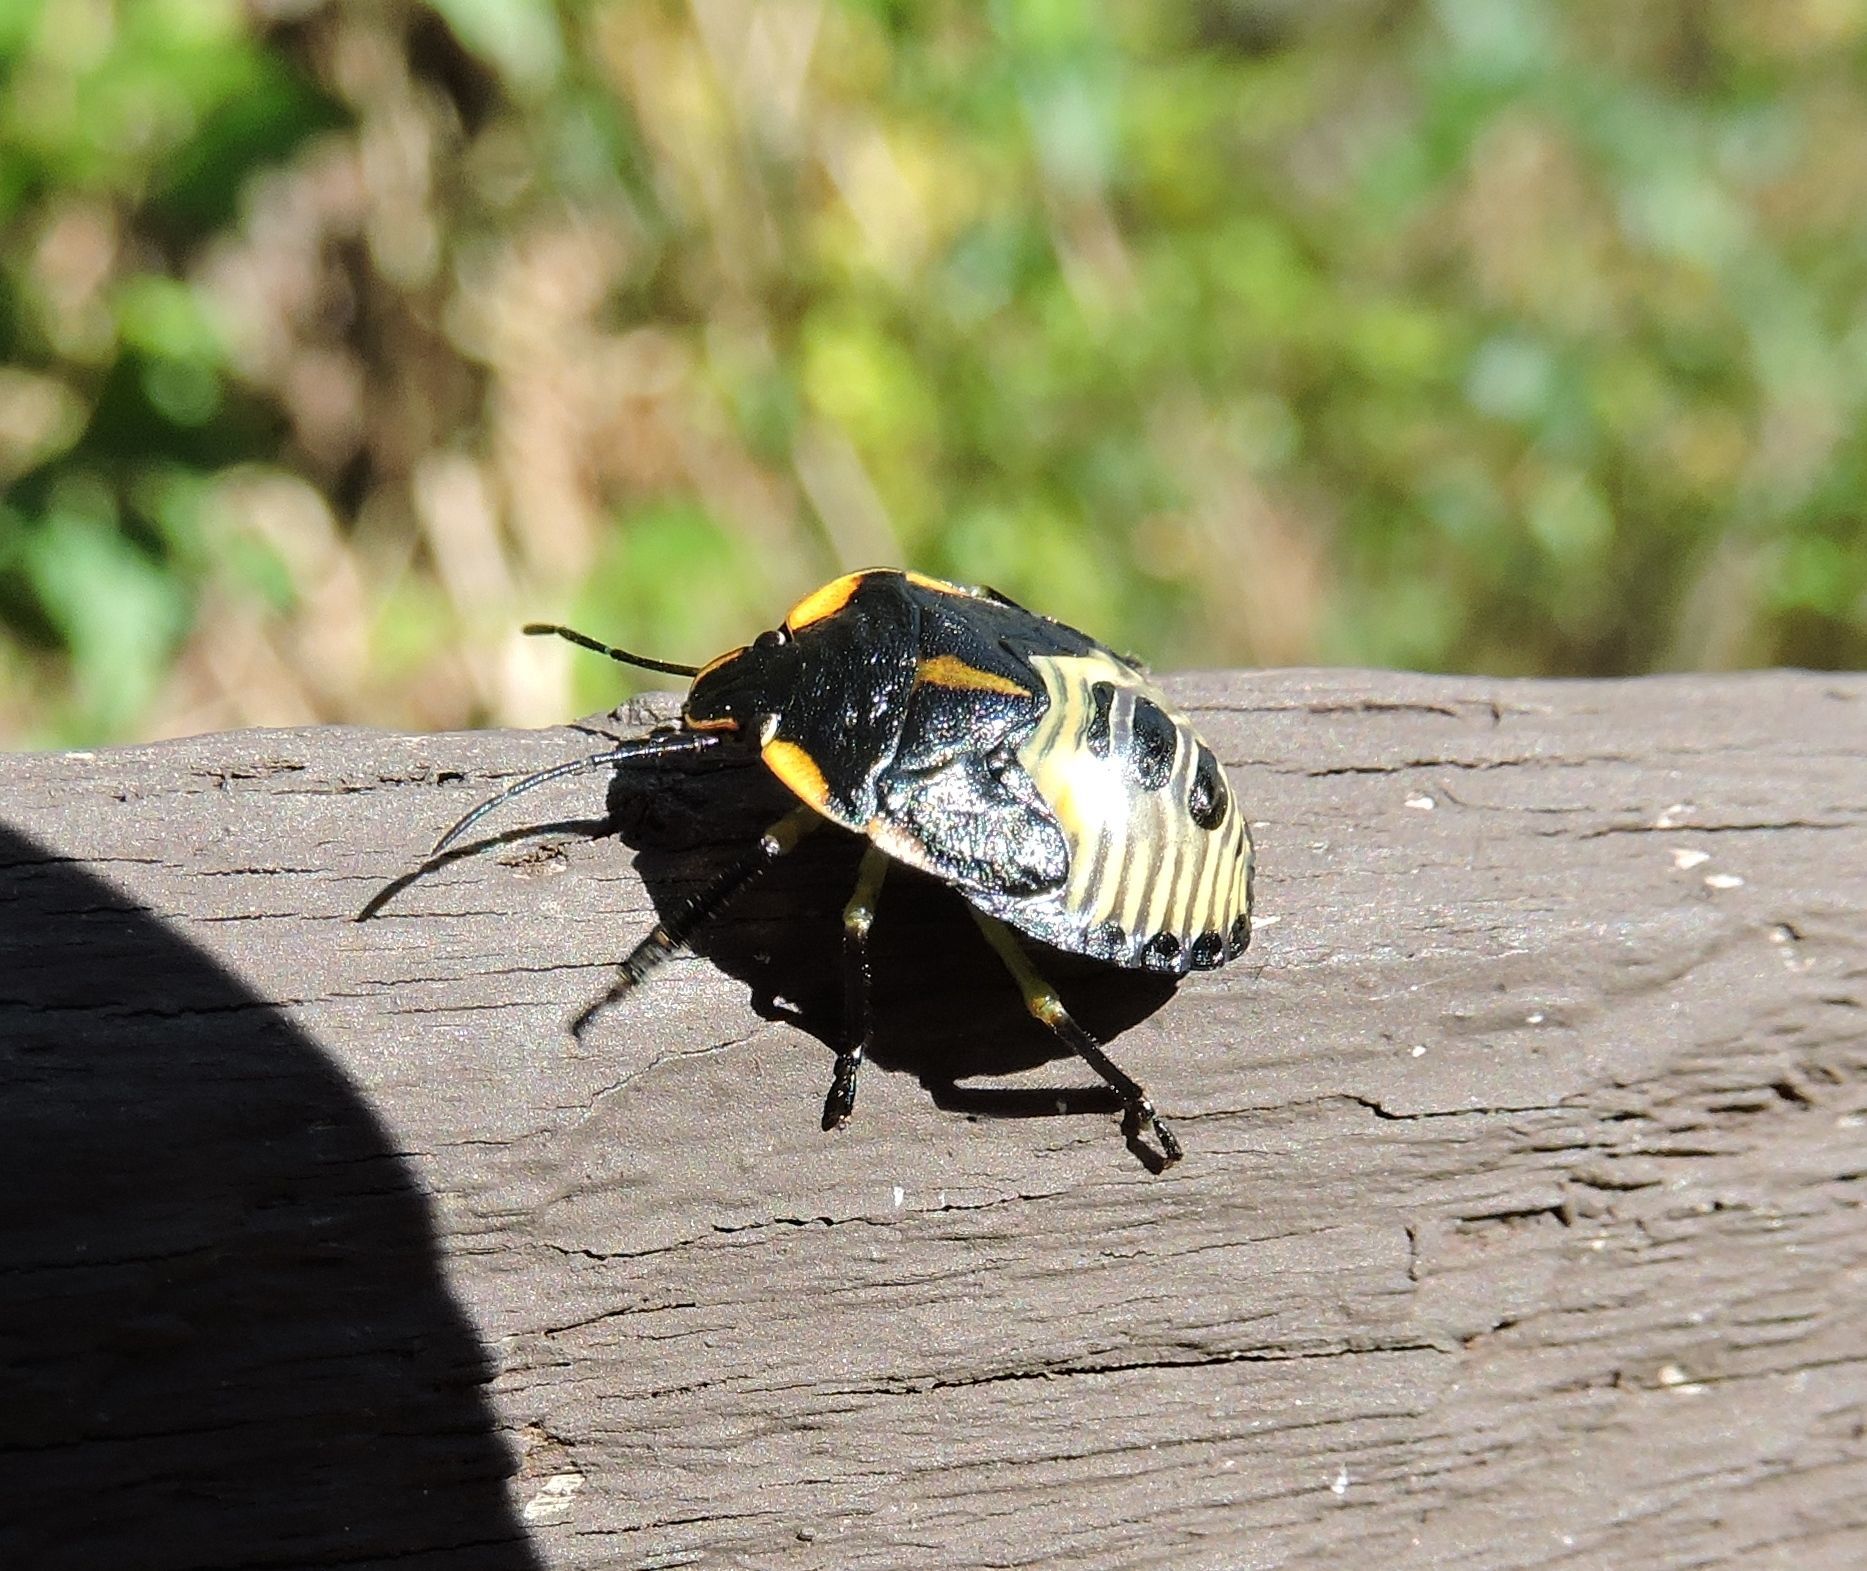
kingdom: Animalia
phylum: Arthropoda
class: Insecta
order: Hemiptera
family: Pentatomidae
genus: Chinavia
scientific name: Chinavia hilaris
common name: Green stink bug
